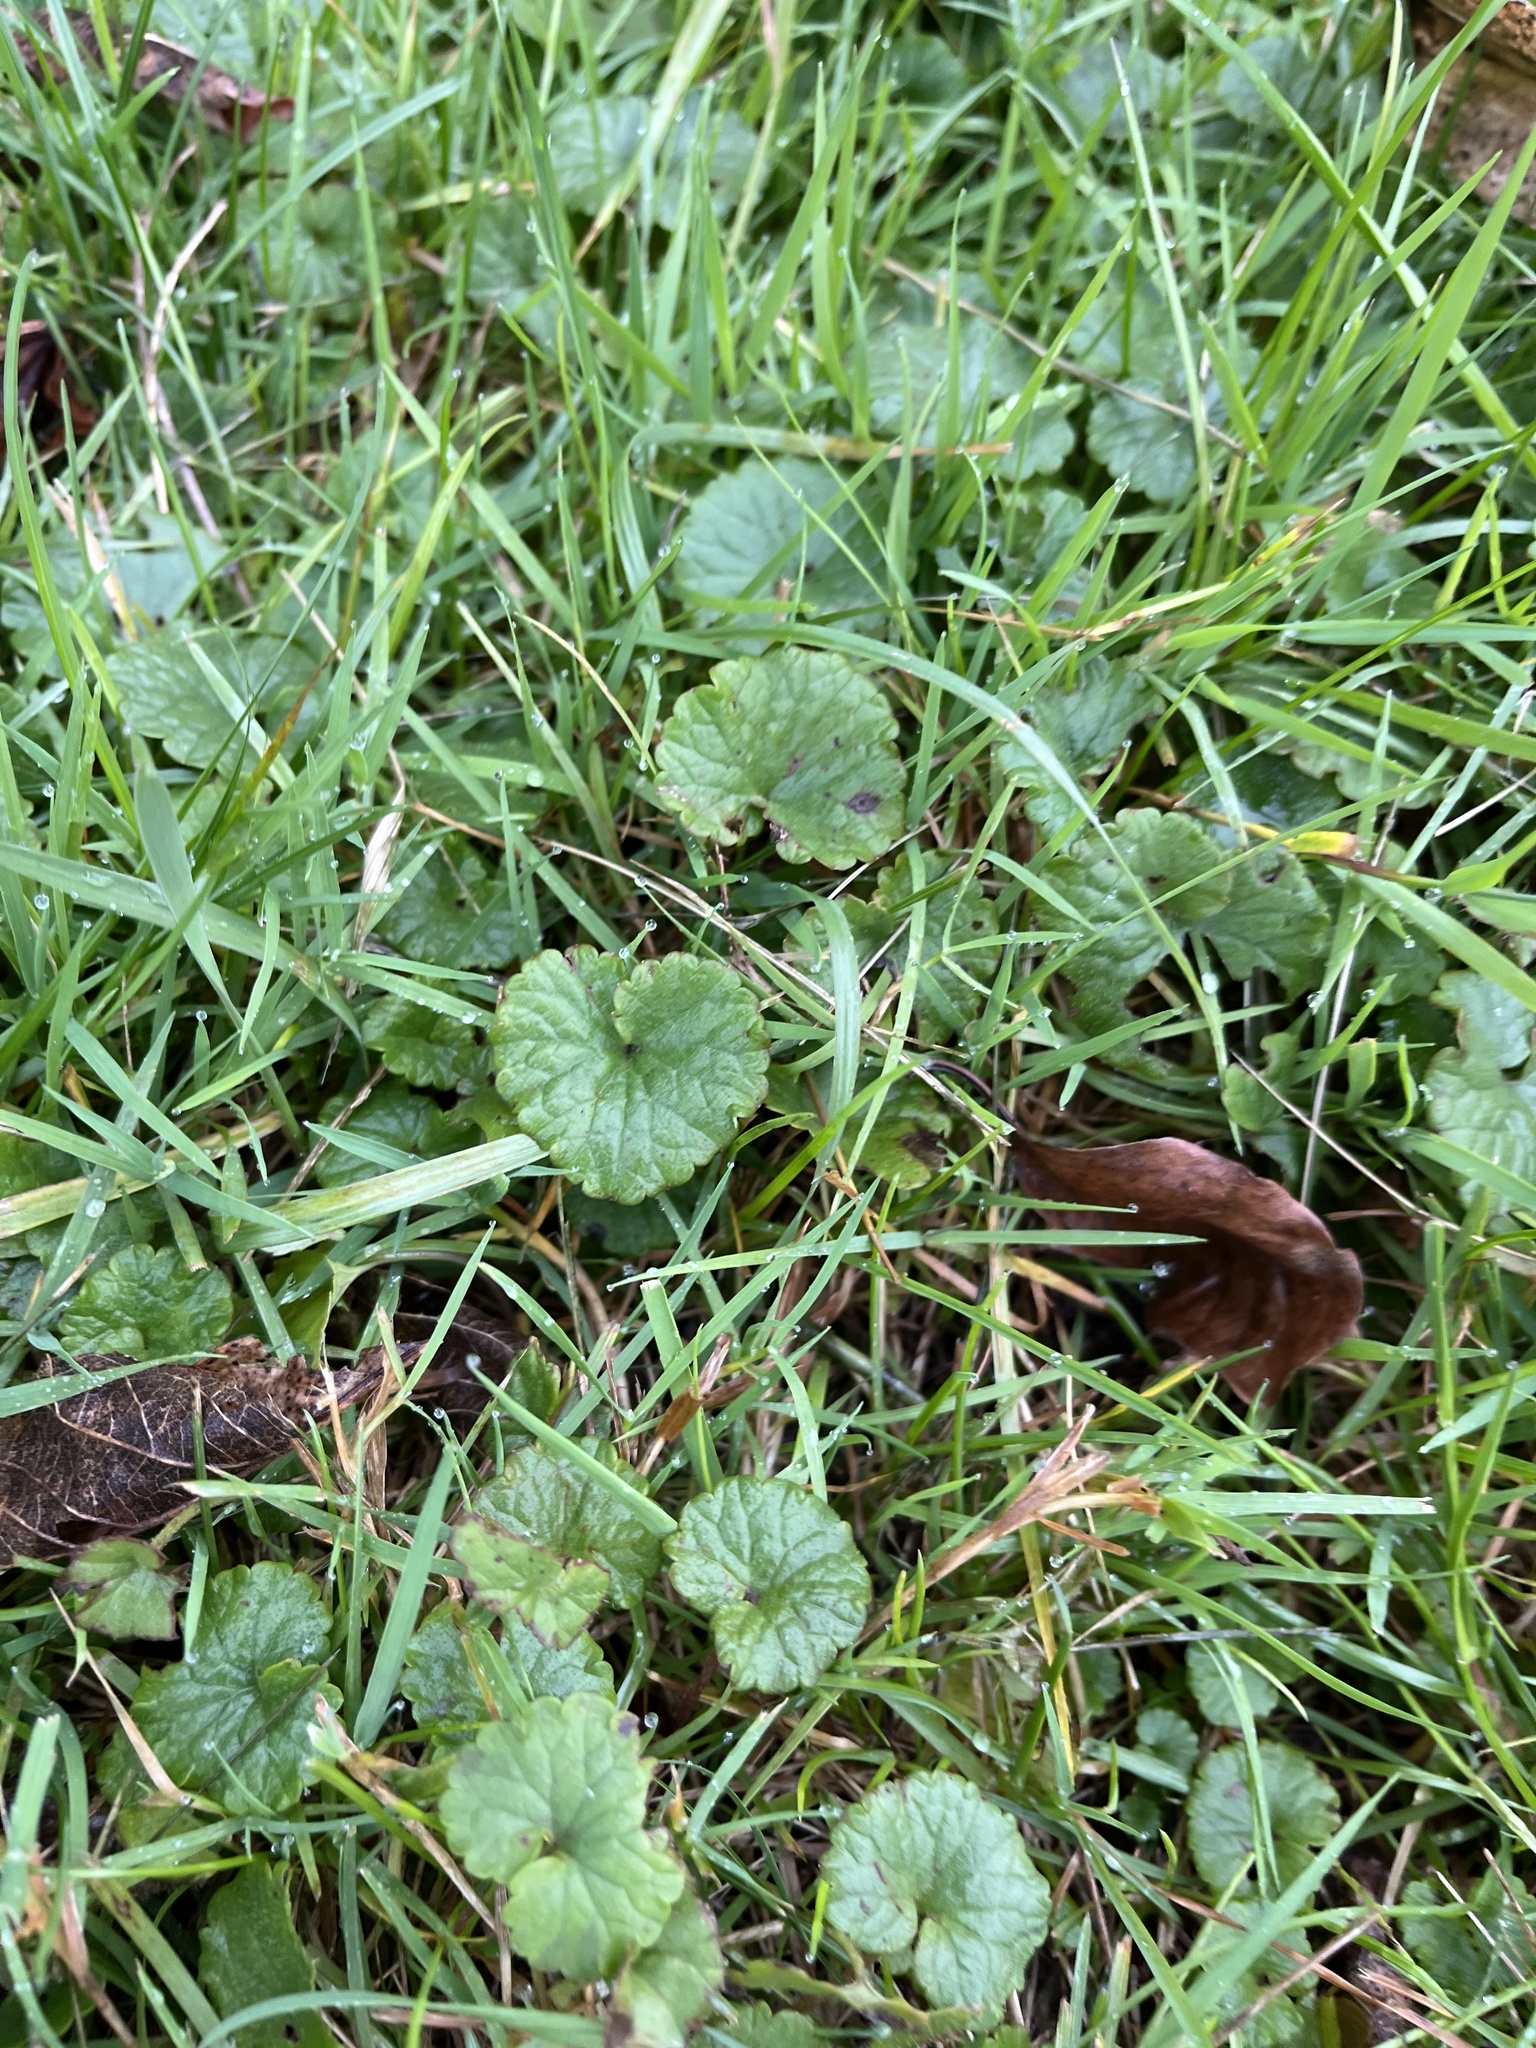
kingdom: Plantae
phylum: Tracheophyta
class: Magnoliopsida
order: Lamiales
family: Lamiaceae
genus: Glechoma
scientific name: Glechoma hederacea
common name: Ground ivy
